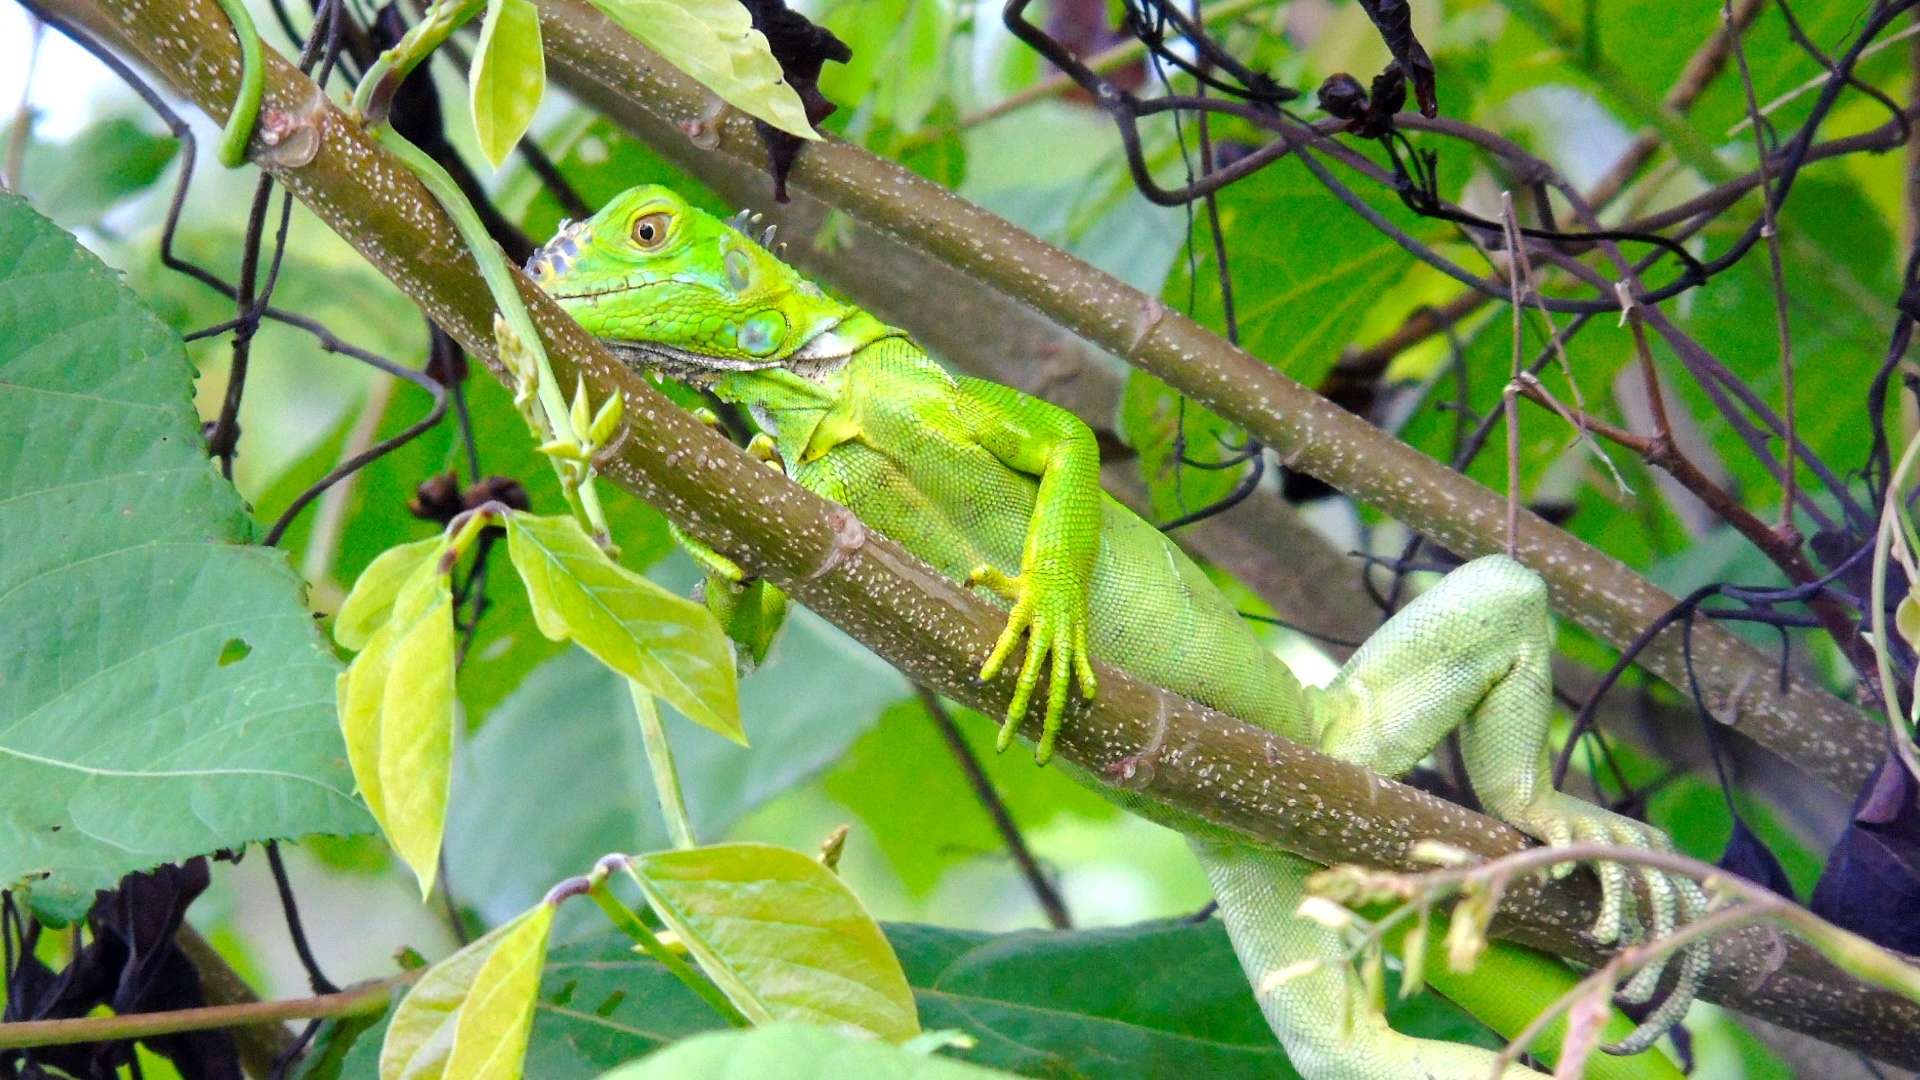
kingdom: Animalia
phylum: Chordata
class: Squamata
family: Iguanidae
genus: Iguana
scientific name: Iguana iguana
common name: Green iguana
